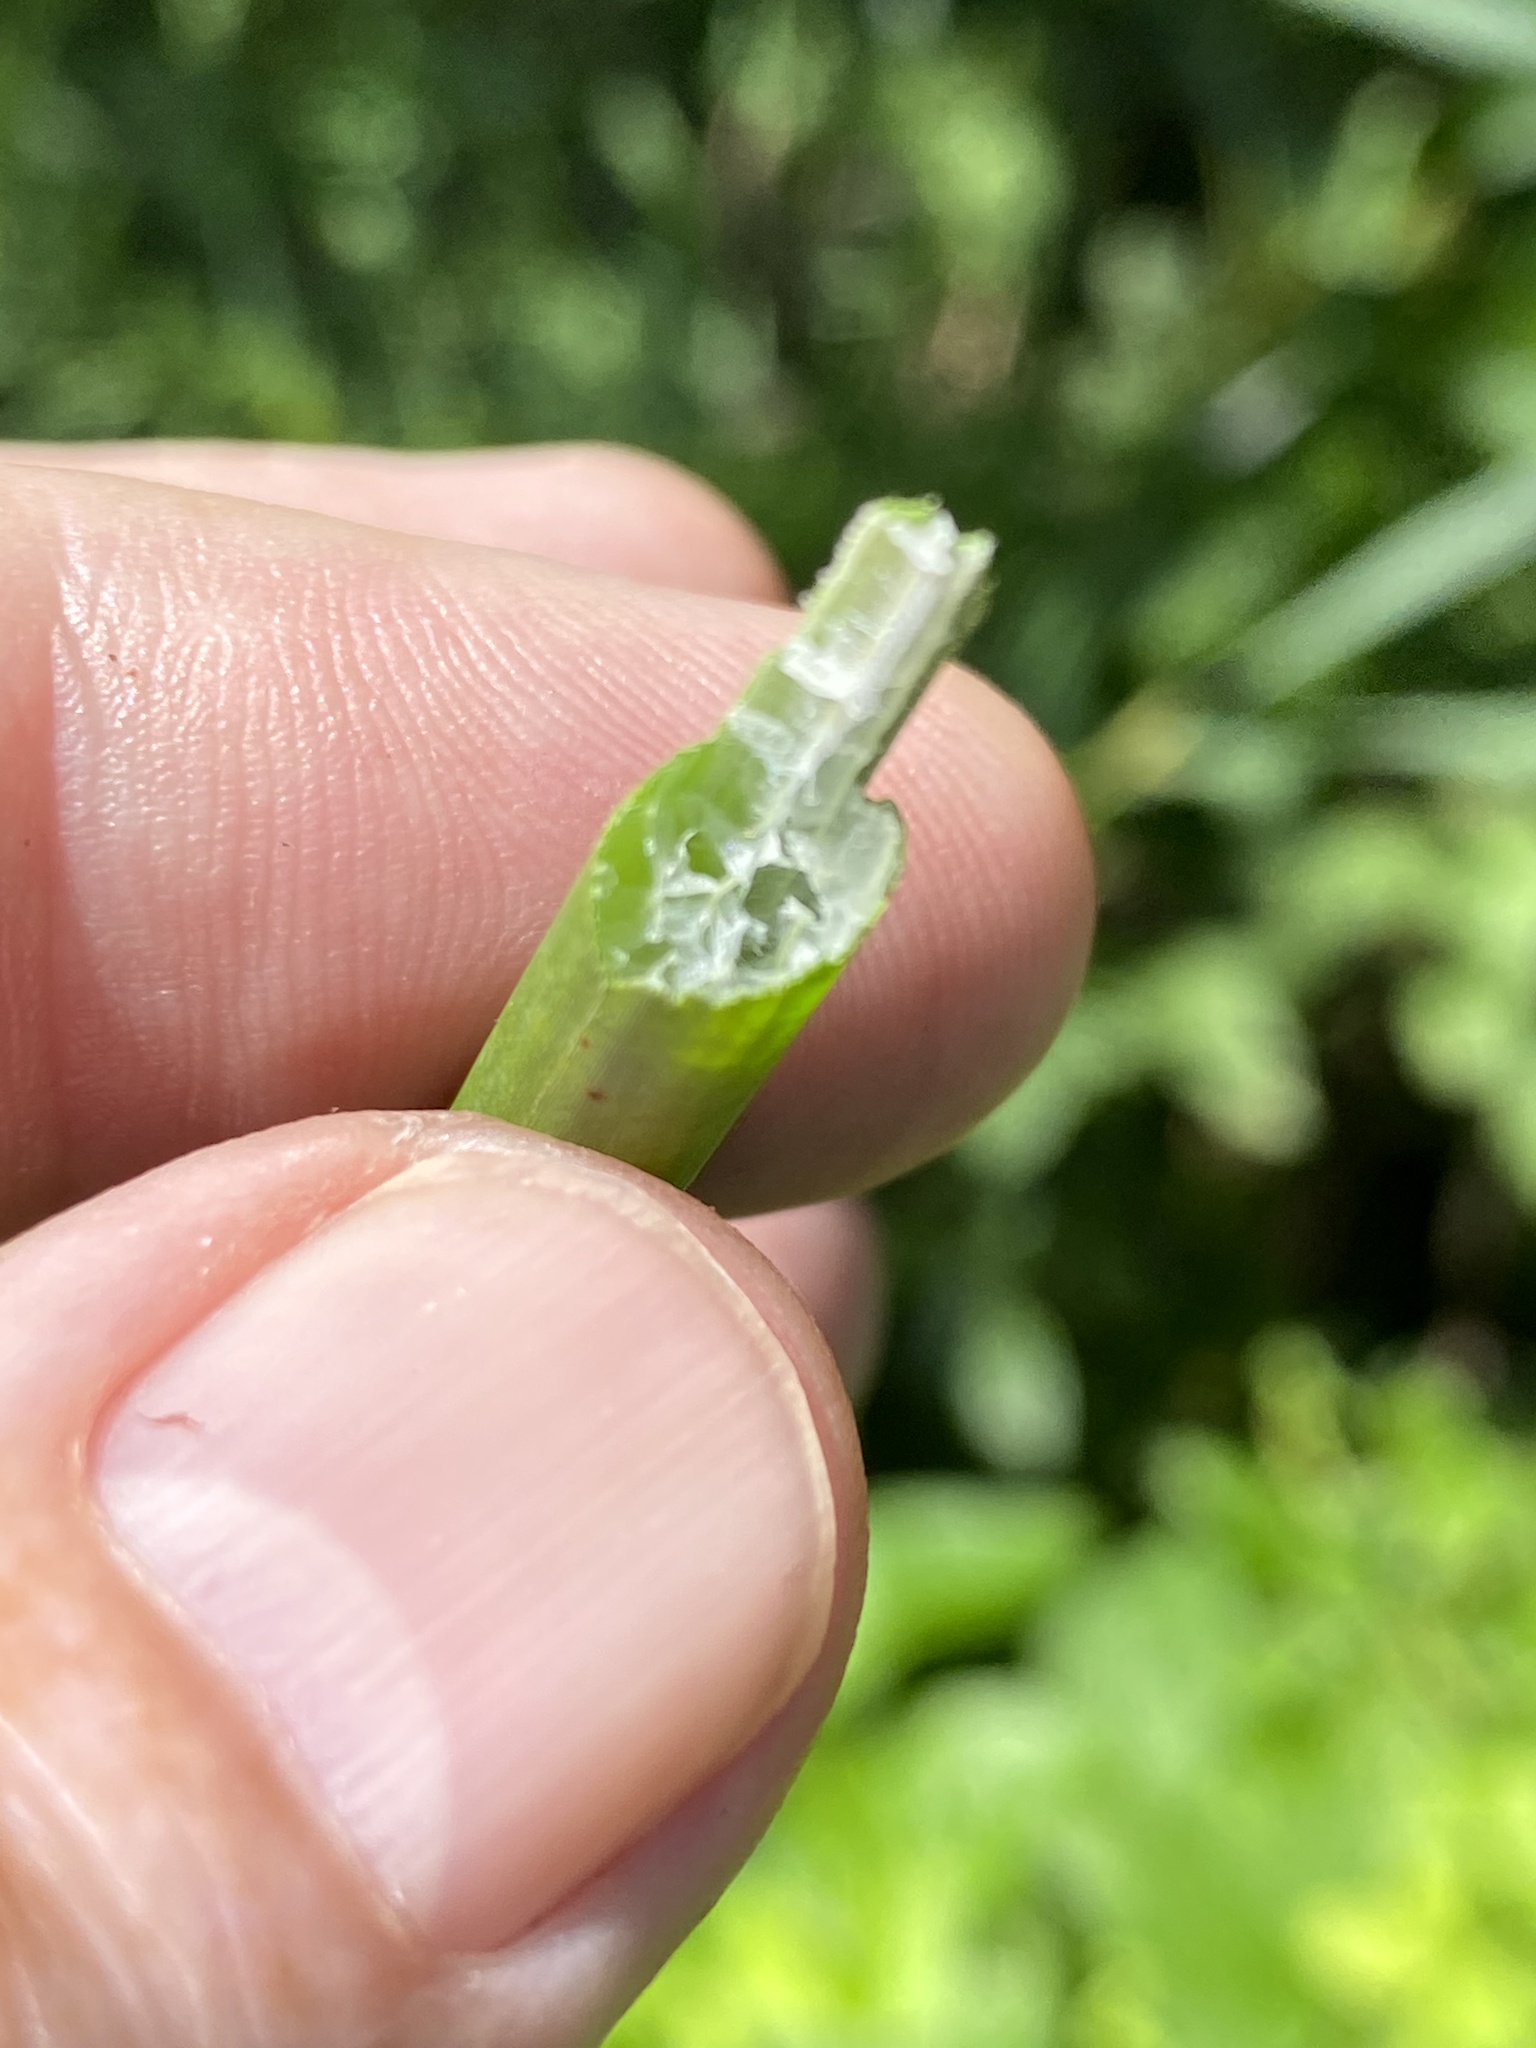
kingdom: Plantae
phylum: Tracheophyta
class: Liliopsida
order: Poales
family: Cyperaceae
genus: Schoenoplectus
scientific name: Schoenoplectus tabernaemontani
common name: Grey club-rush
